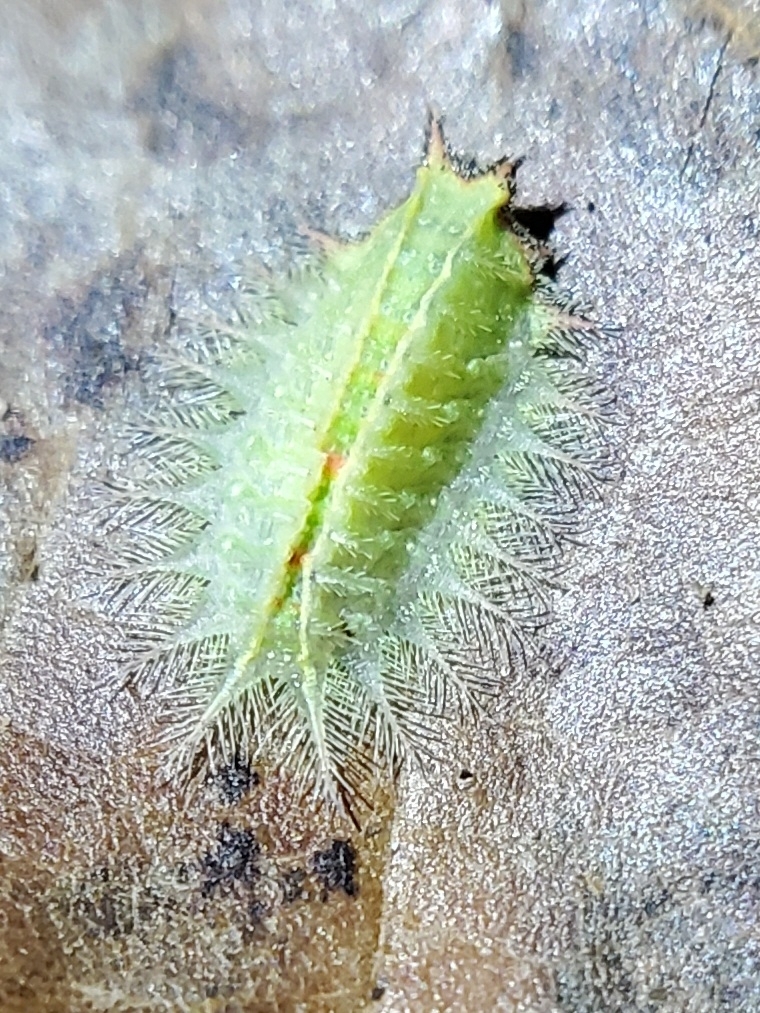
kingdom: Animalia
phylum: Arthropoda
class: Insecta
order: Lepidoptera
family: Limacodidae
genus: Isa
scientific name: Isa textula
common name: Crowned slug moth
